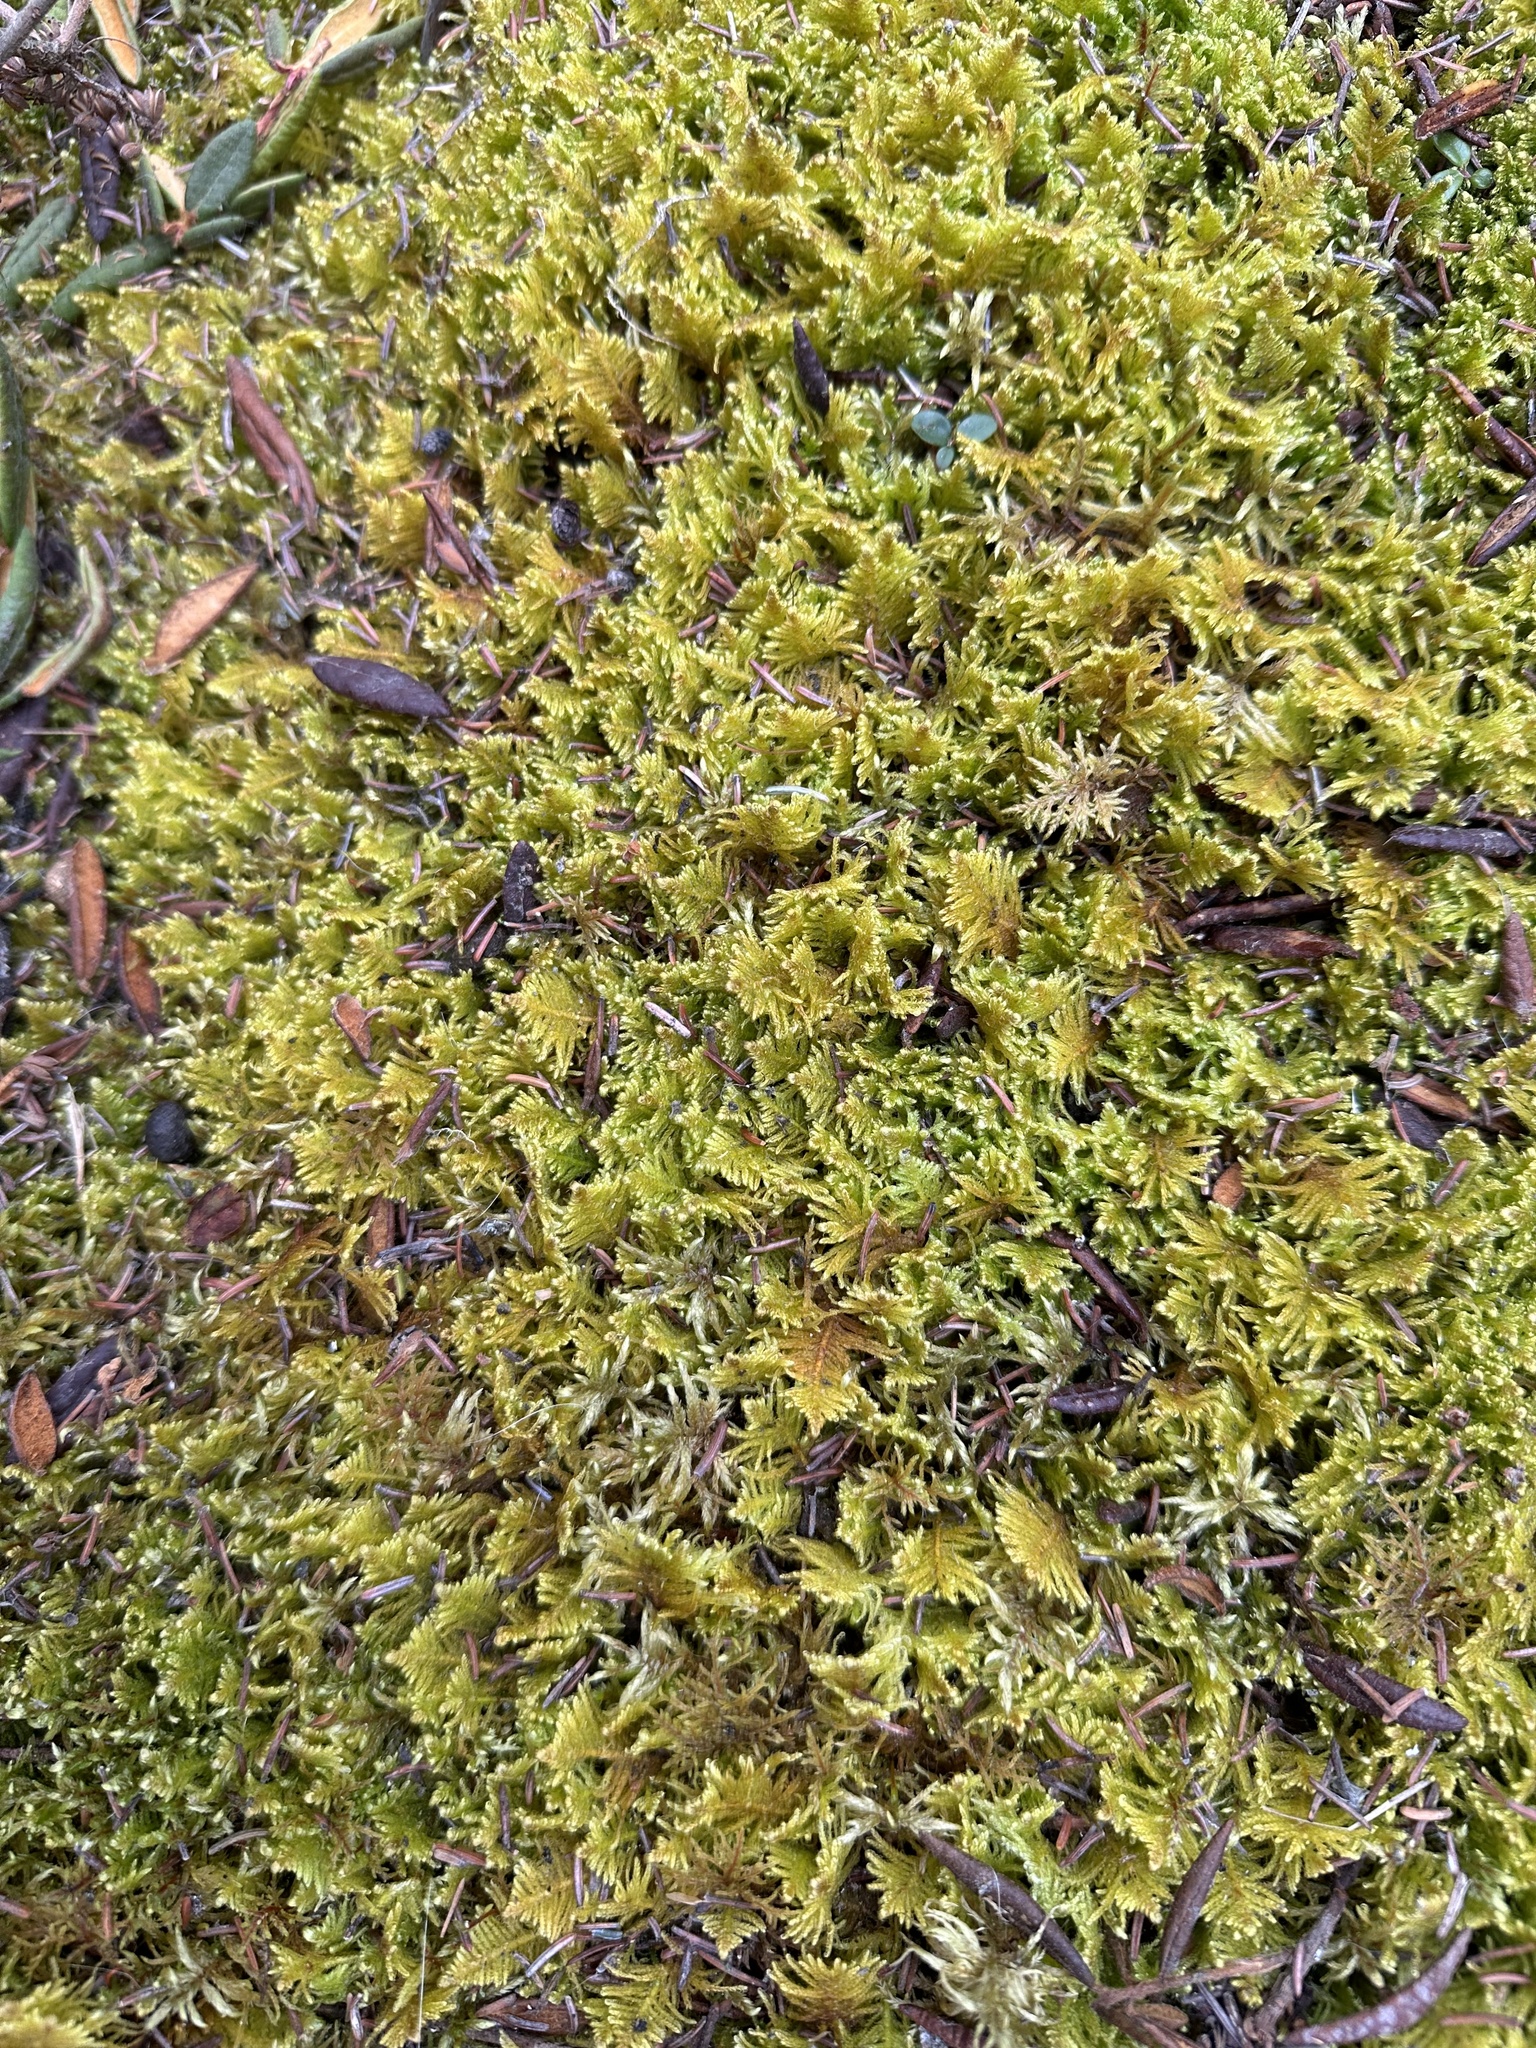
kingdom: Plantae
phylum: Bryophyta
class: Bryopsida
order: Hypnales
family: Pylaisiaceae
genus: Ptilium
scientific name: Ptilium crista-castrensis
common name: Knight's plume moss
